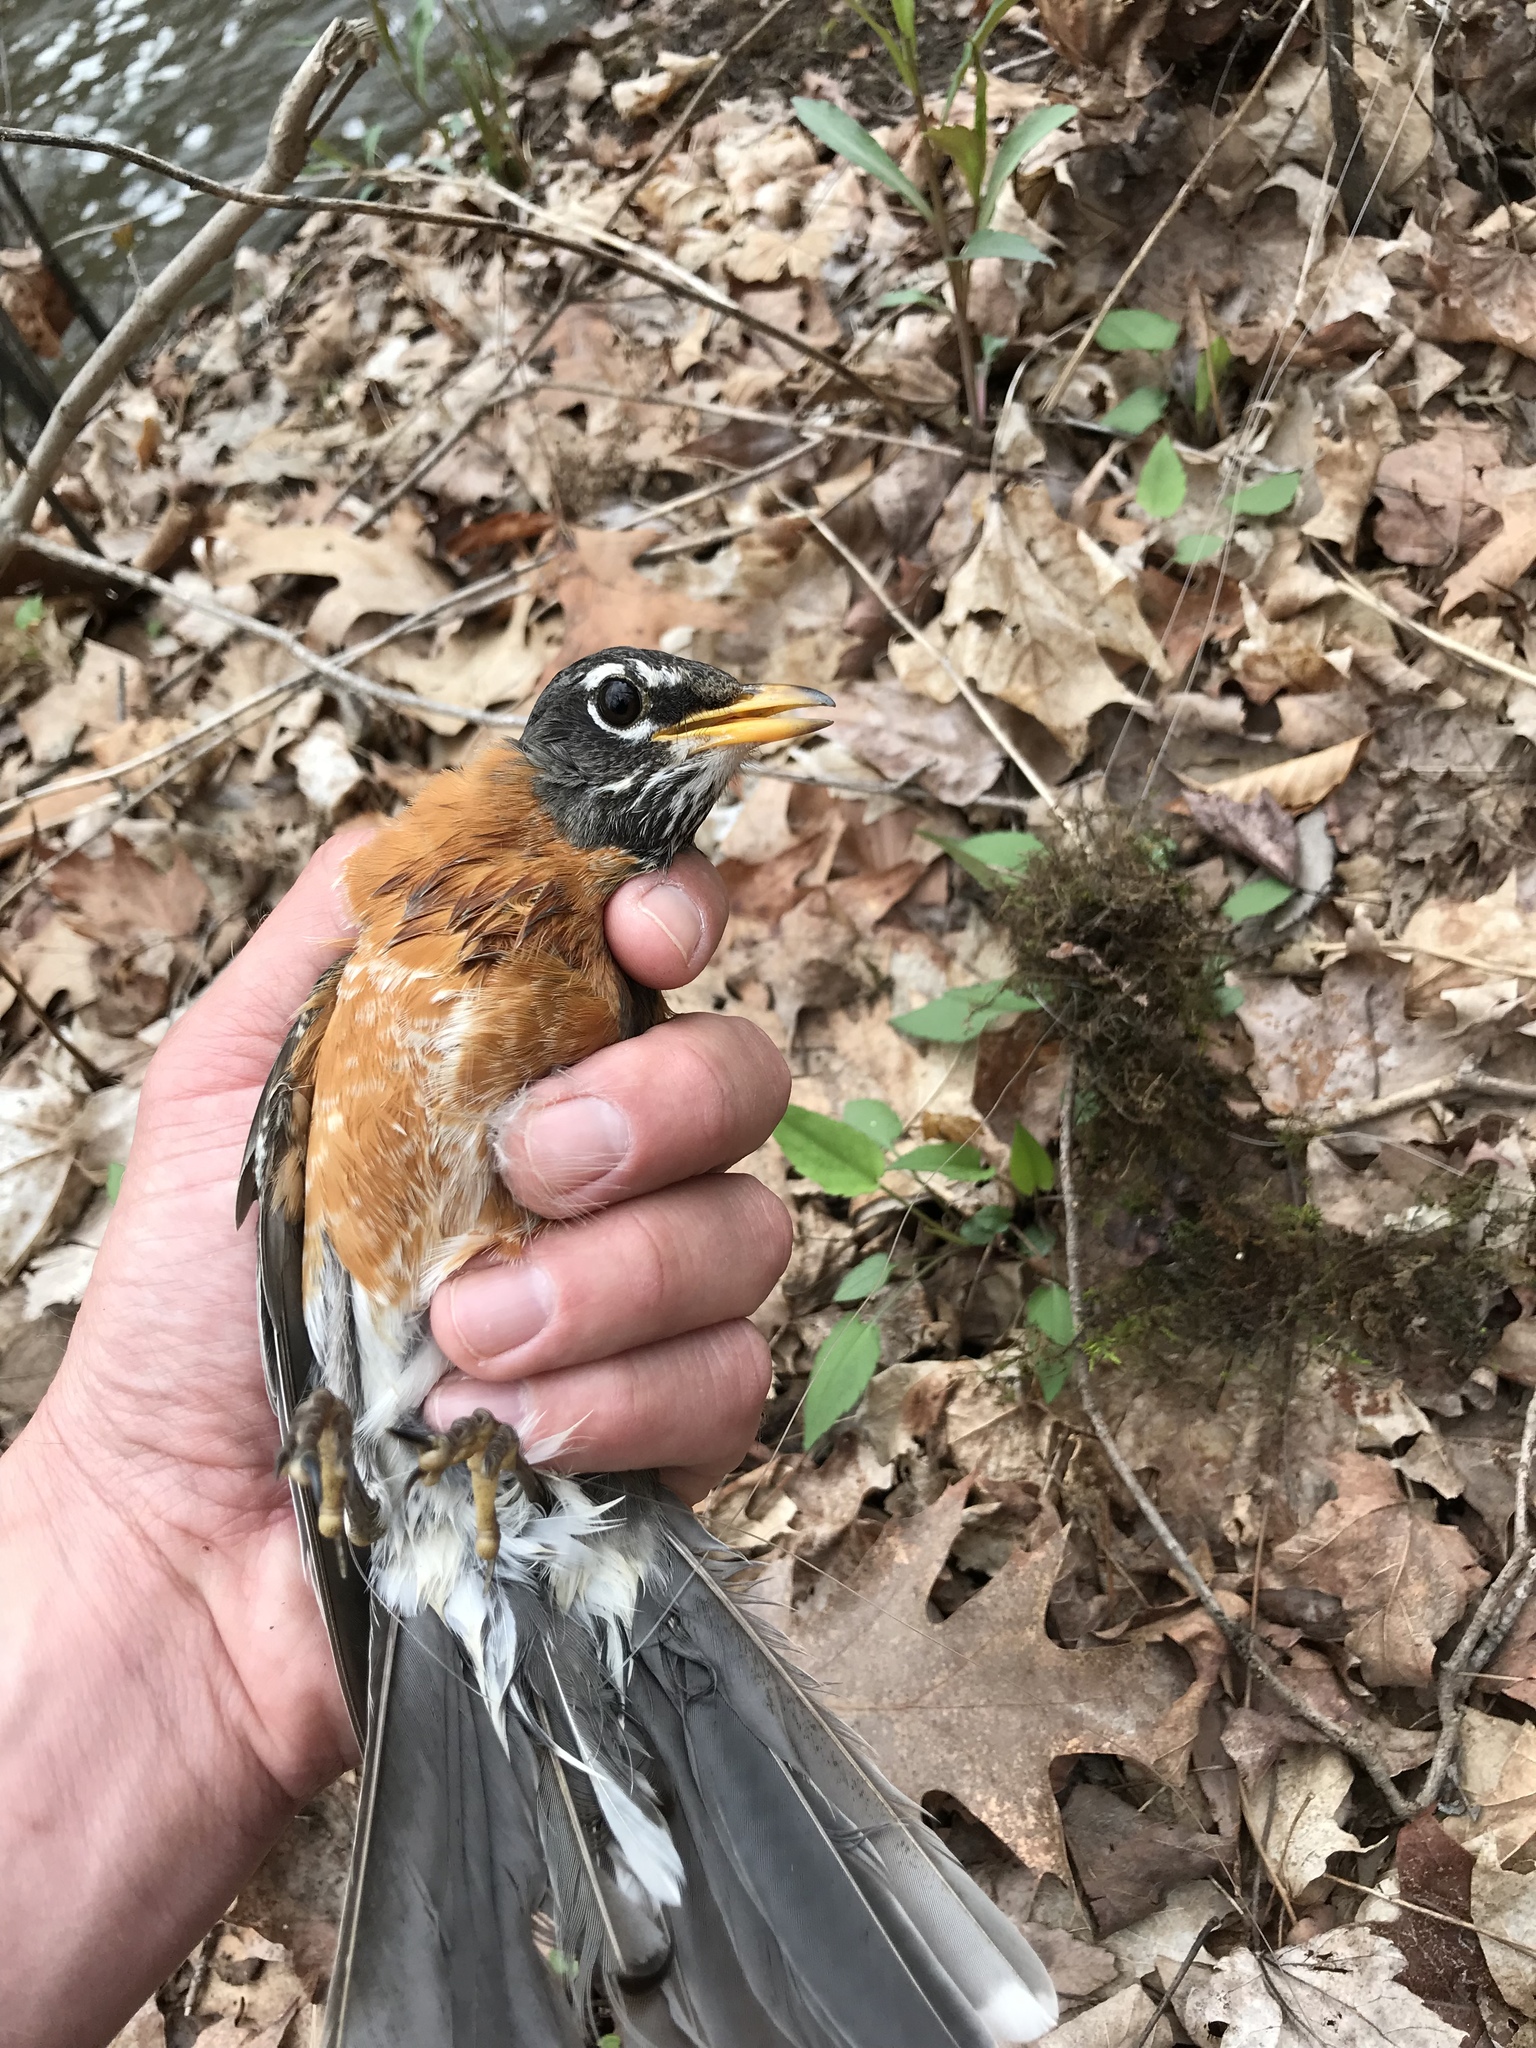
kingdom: Animalia
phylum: Chordata
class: Aves
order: Passeriformes
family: Turdidae
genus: Turdus
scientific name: Turdus migratorius
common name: American robin
